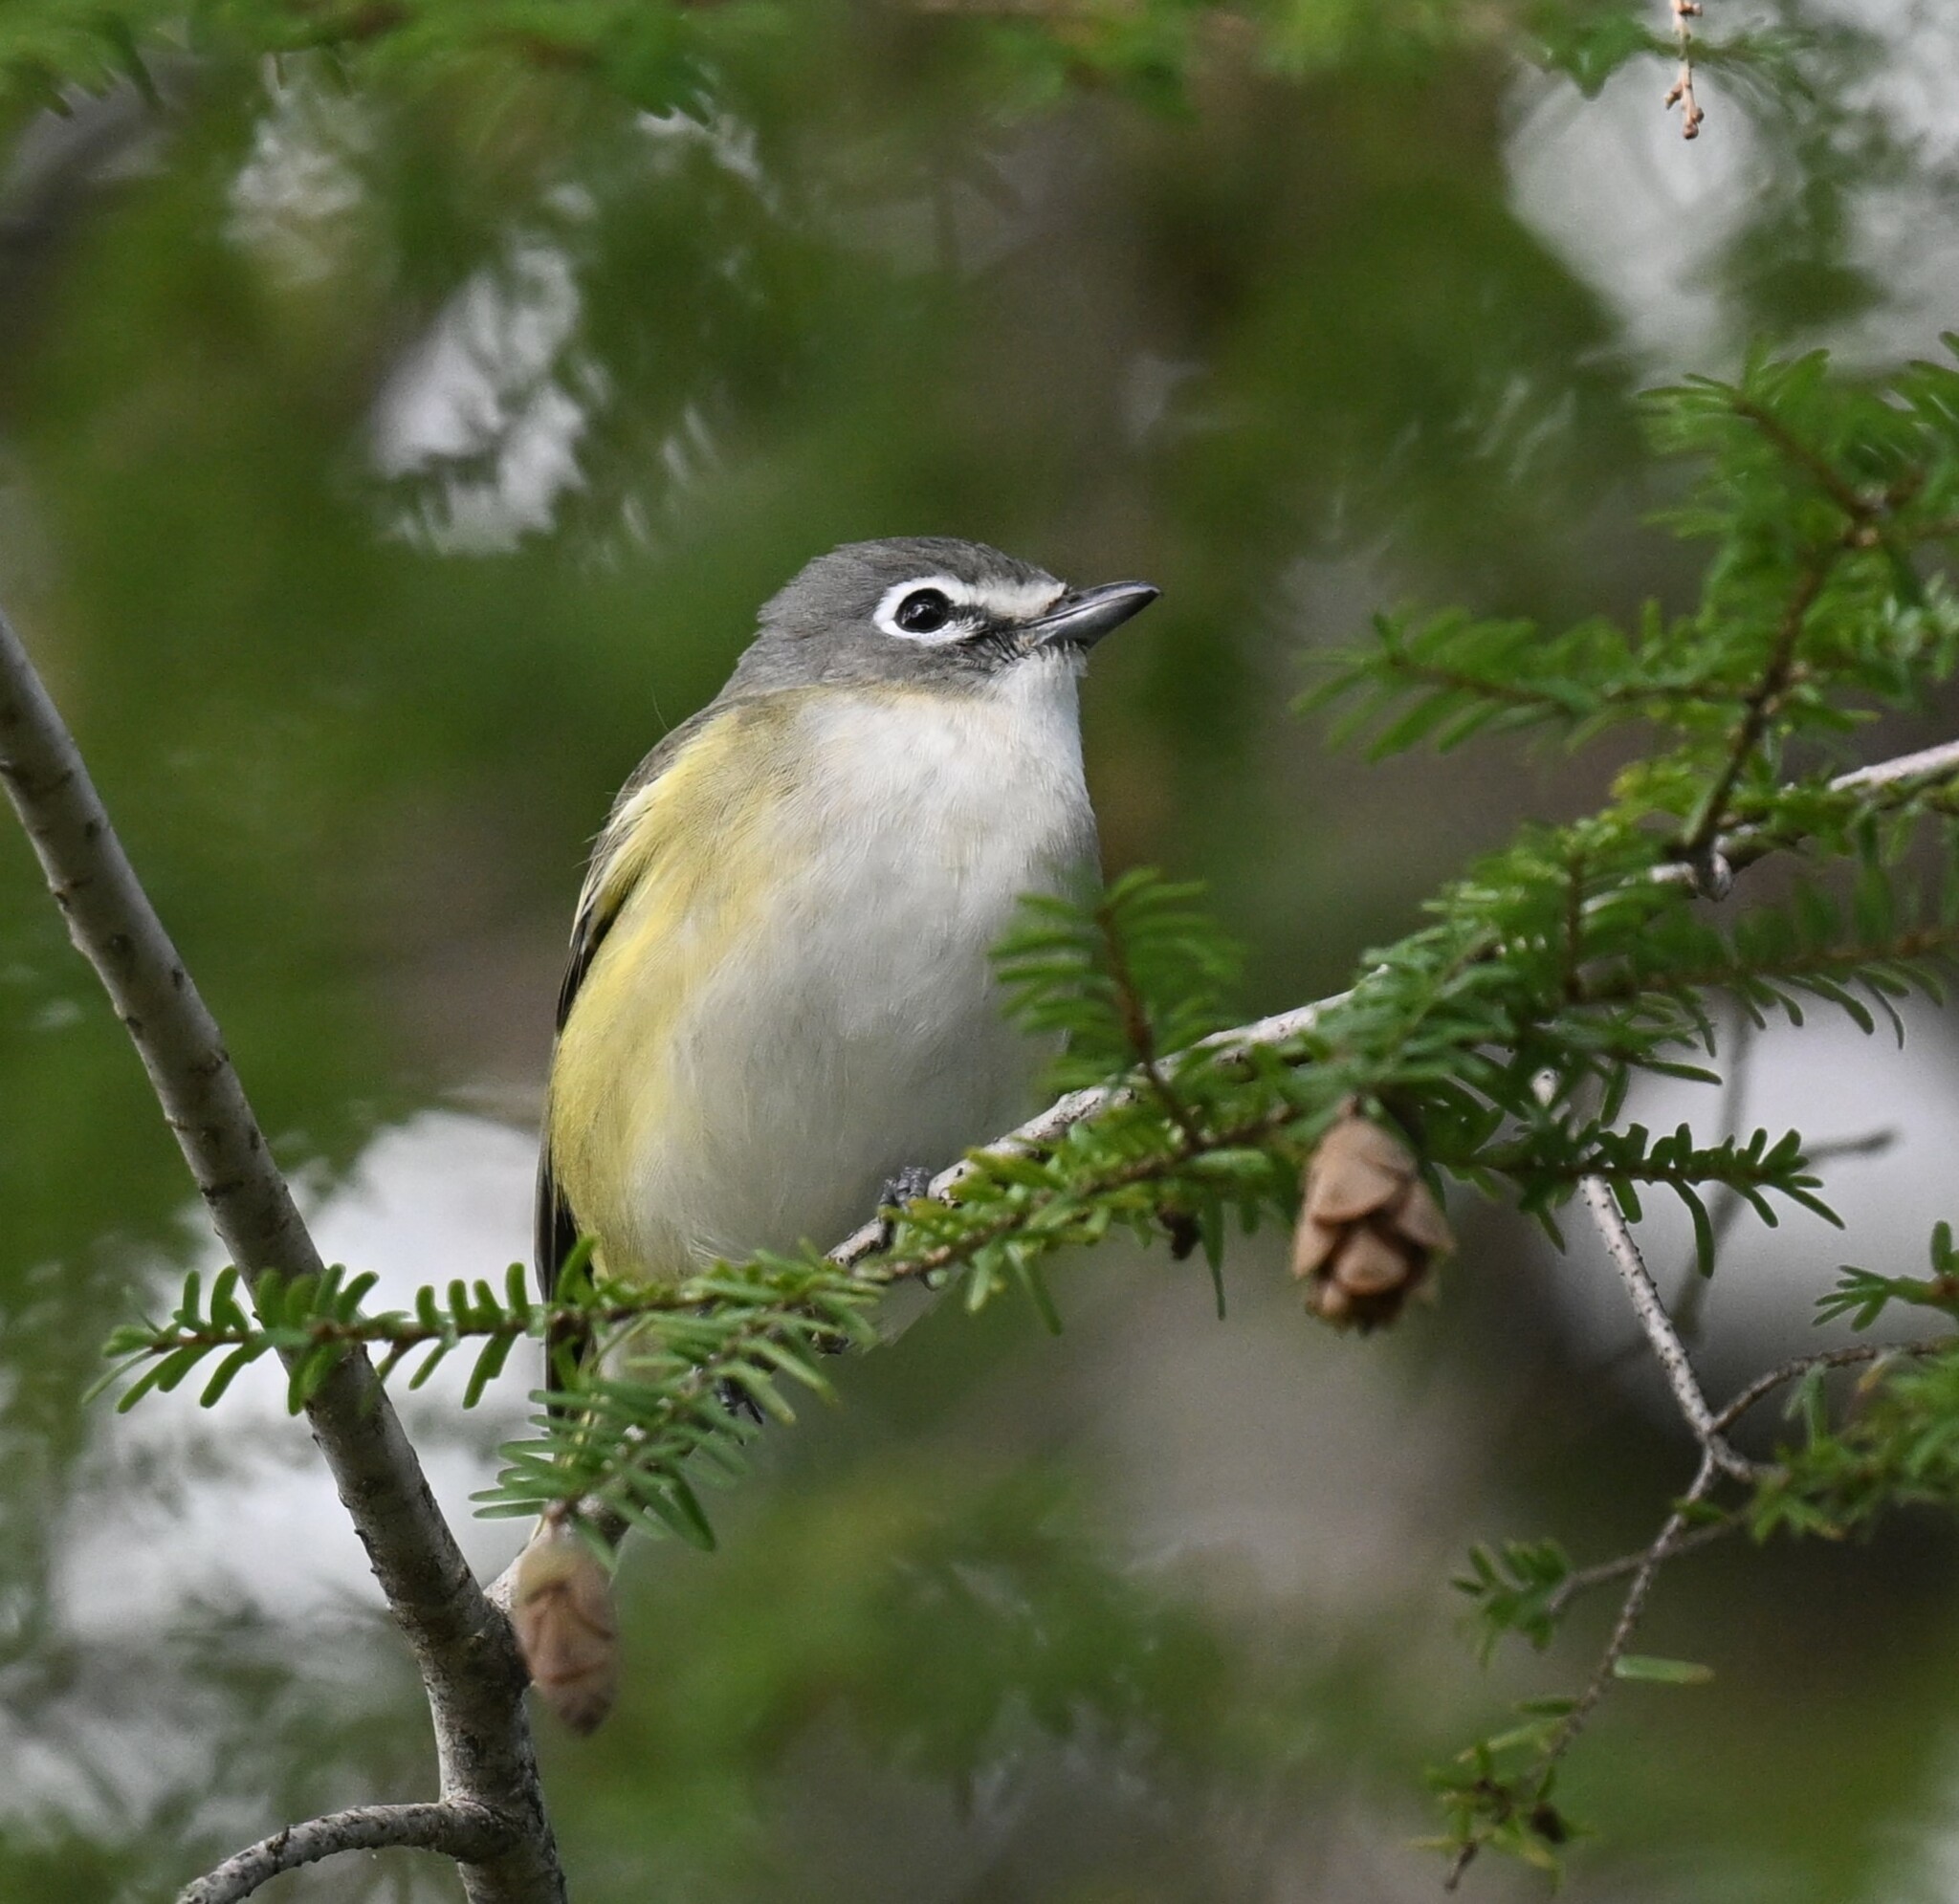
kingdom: Animalia
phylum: Chordata
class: Aves
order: Passeriformes
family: Vireonidae
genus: Vireo
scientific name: Vireo solitarius
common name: Blue-headed vireo
